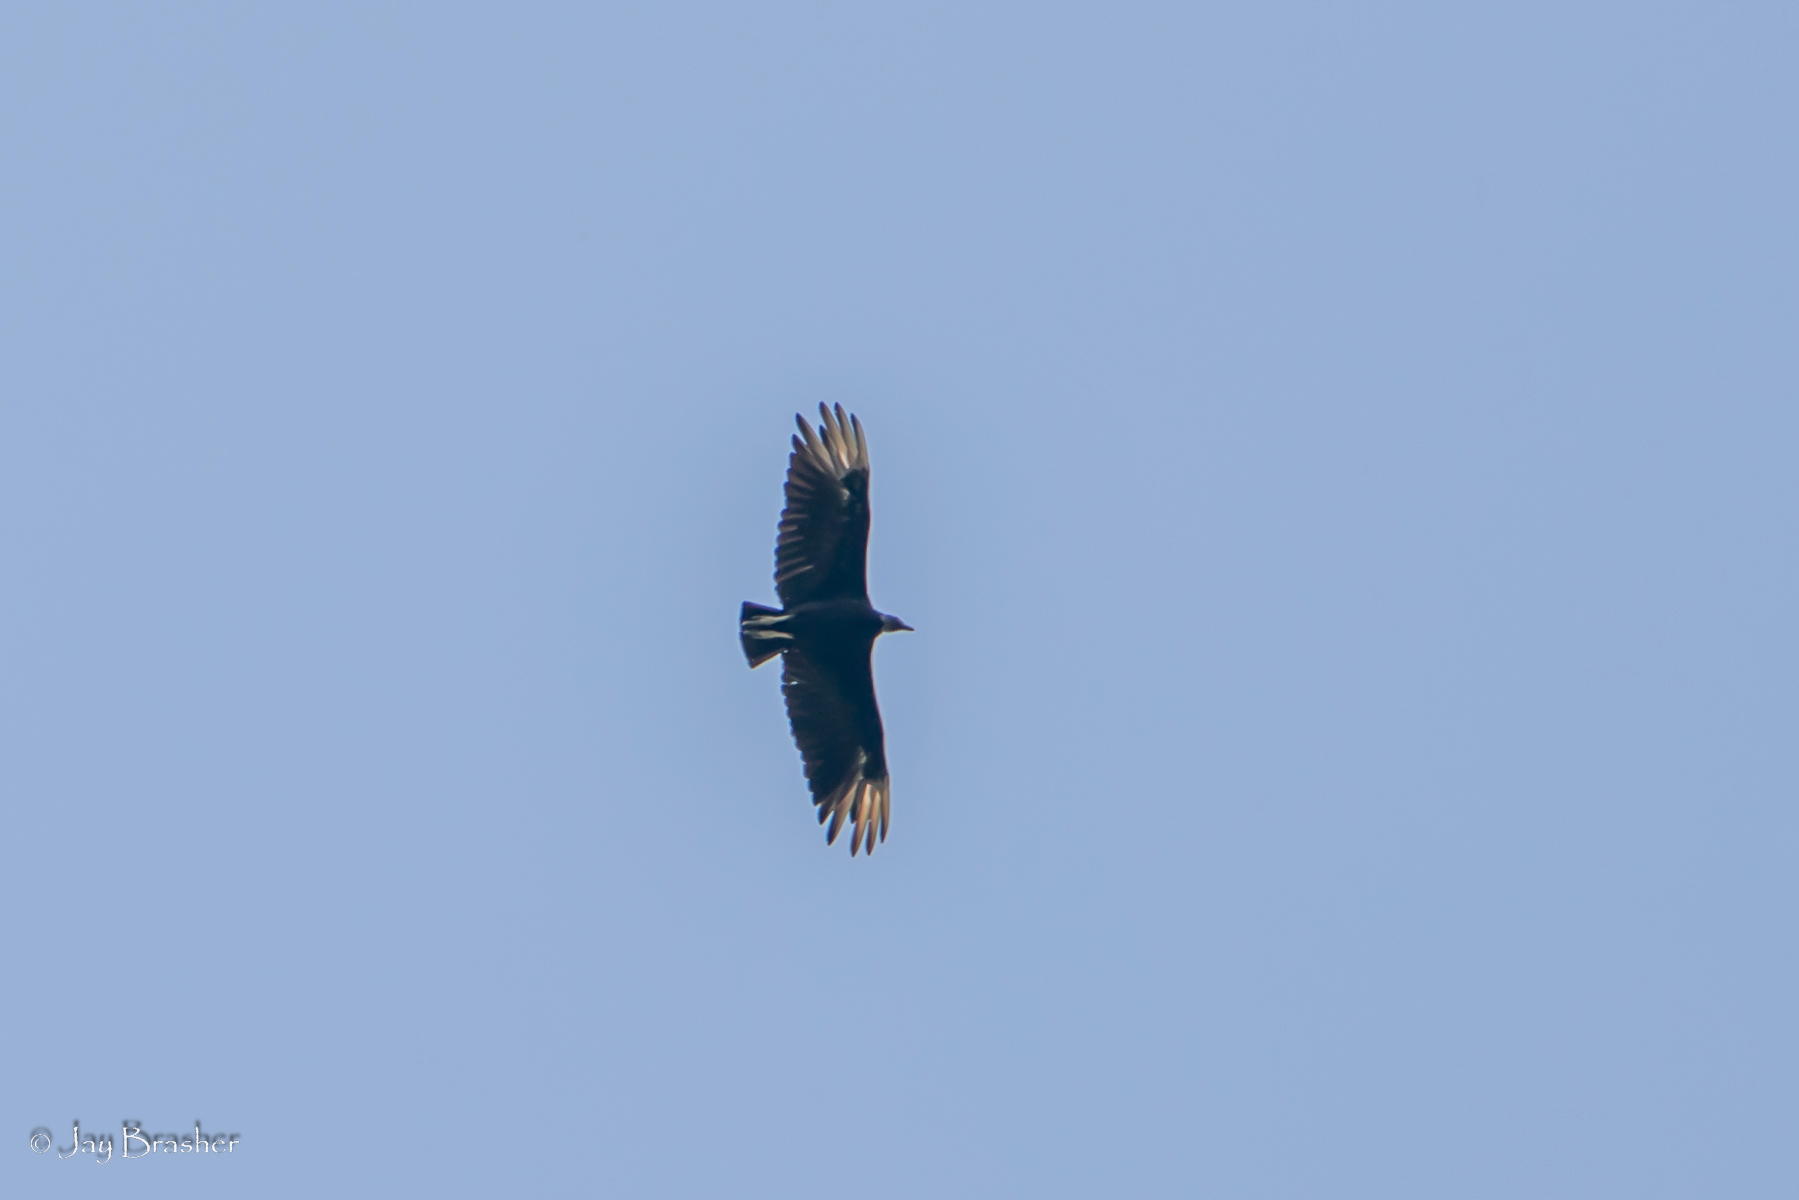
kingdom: Animalia
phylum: Chordata
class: Aves
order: Accipitriformes
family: Cathartidae
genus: Coragyps
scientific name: Coragyps atratus
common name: Black vulture
